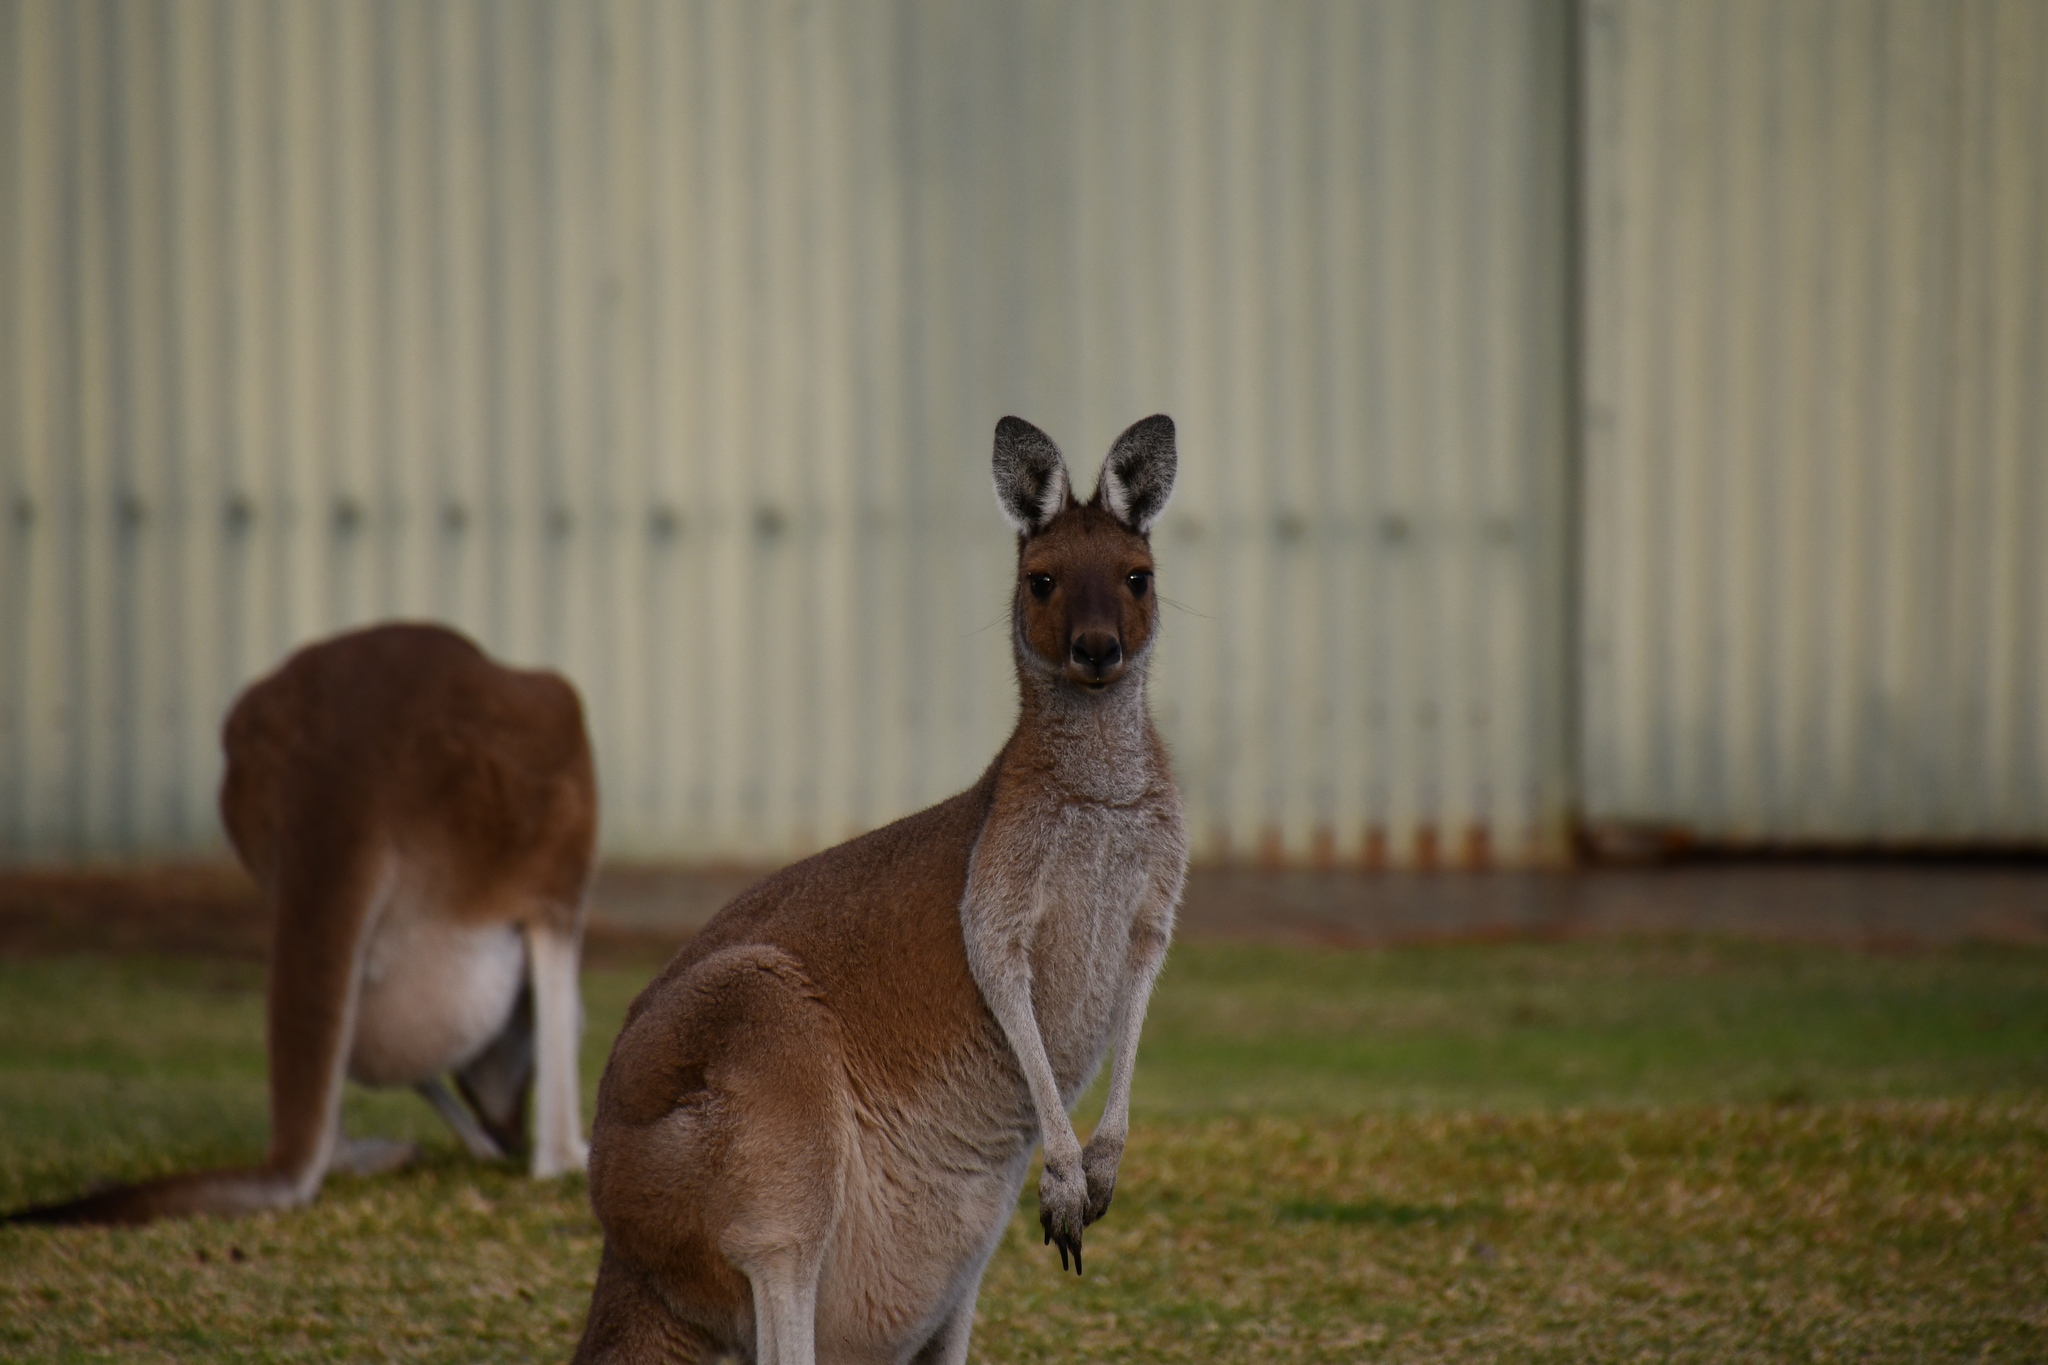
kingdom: Animalia
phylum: Chordata
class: Mammalia
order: Diprotodontia
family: Macropodidae
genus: Macropus
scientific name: Macropus fuliginosus
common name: Western grey kangaroo
